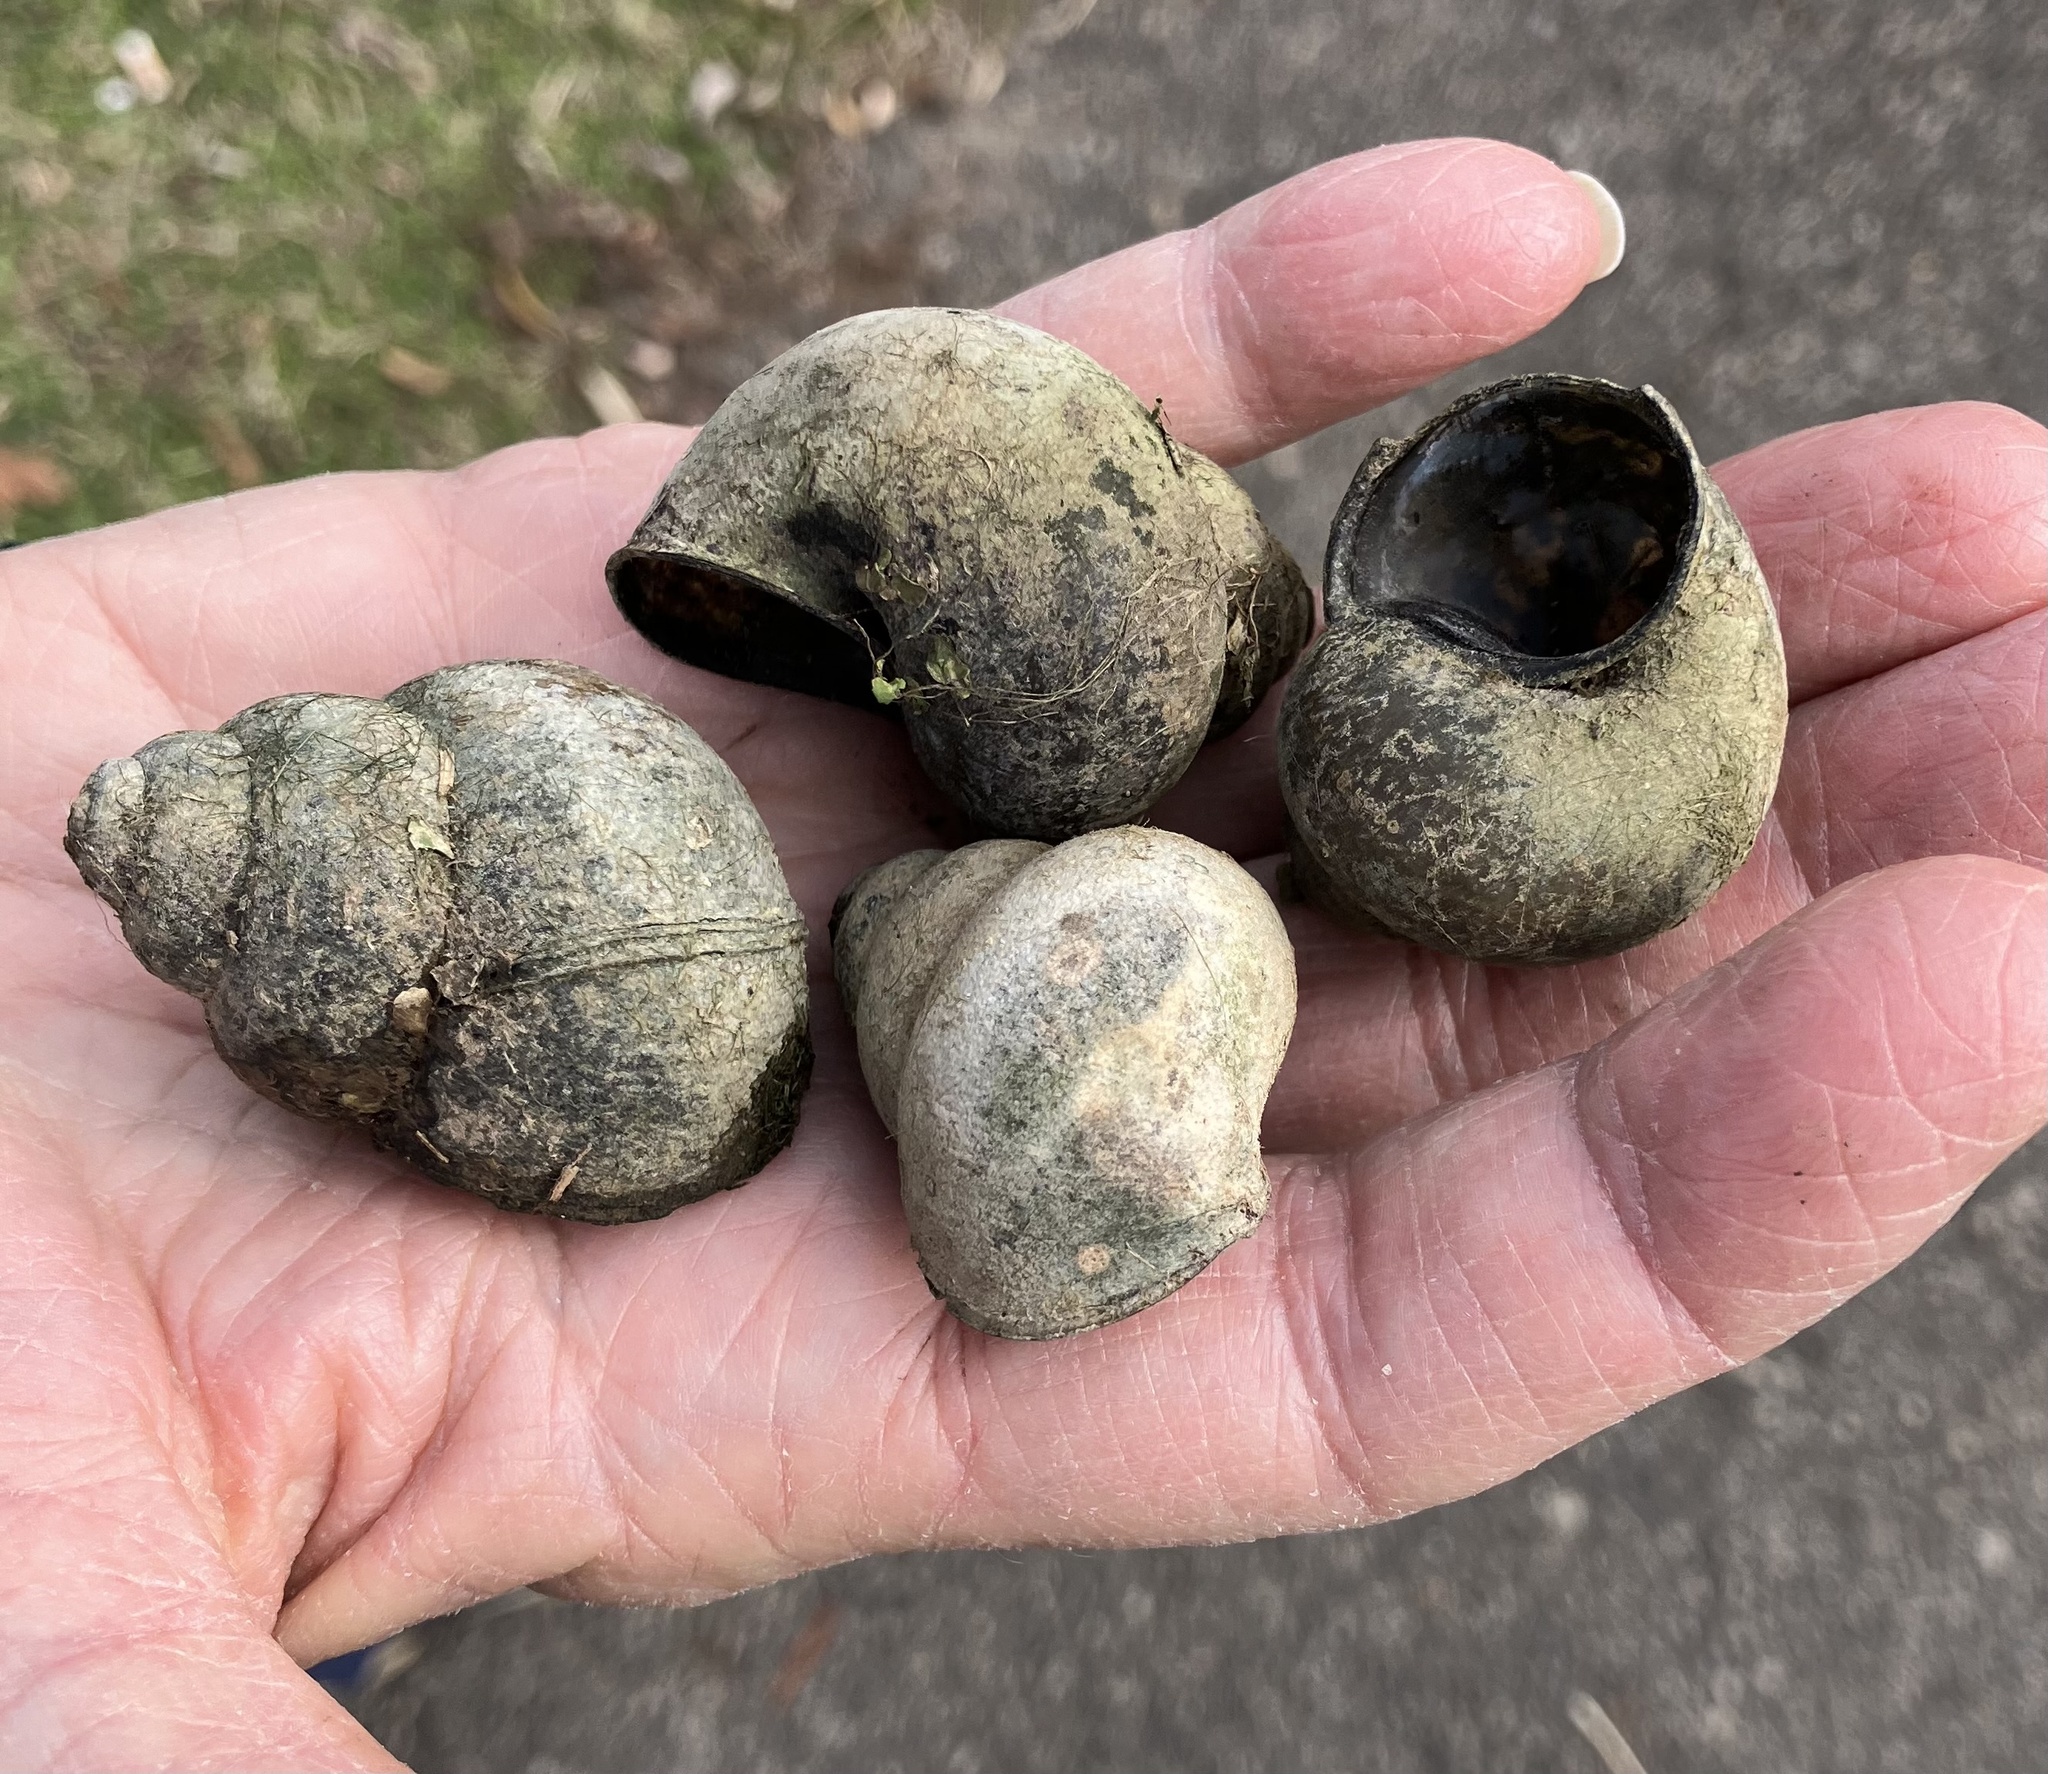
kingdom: Animalia
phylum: Mollusca
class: Gastropoda
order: Architaenioglossa
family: Viviparidae
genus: Cipangopaludina
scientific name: Cipangopaludina chinensis
